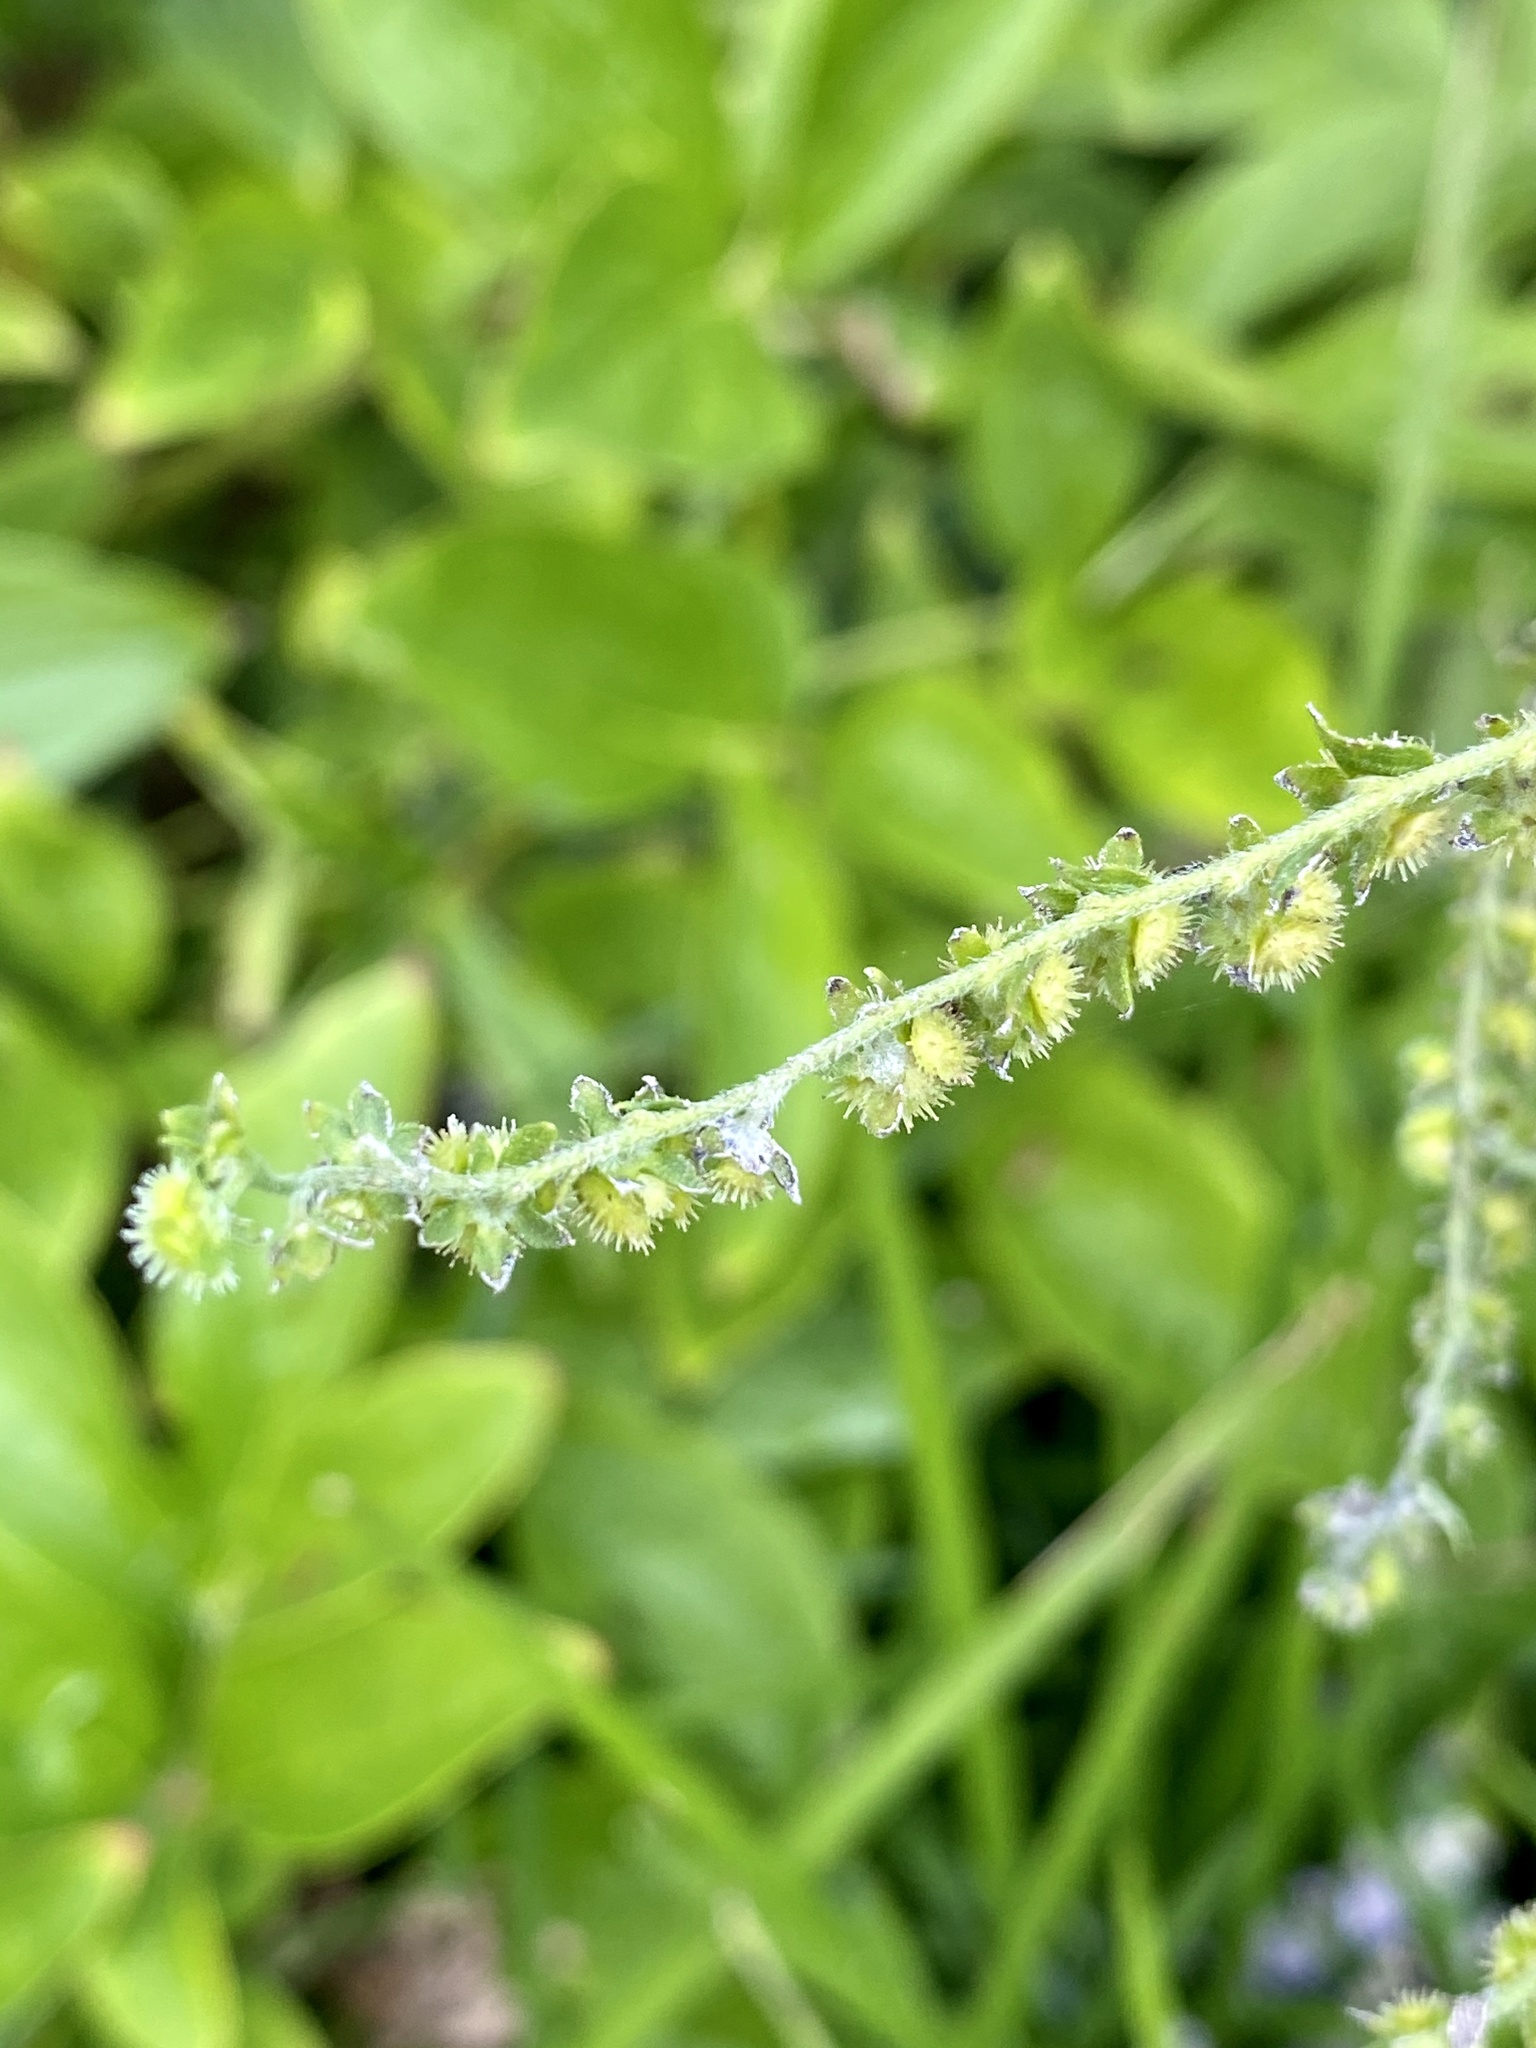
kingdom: Plantae
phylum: Tracheophyta
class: Magnoliopsida
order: Boraginales
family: Boraginaceae
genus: Hackelia
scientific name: Hackelia virginiana
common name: Beggar's-lice
